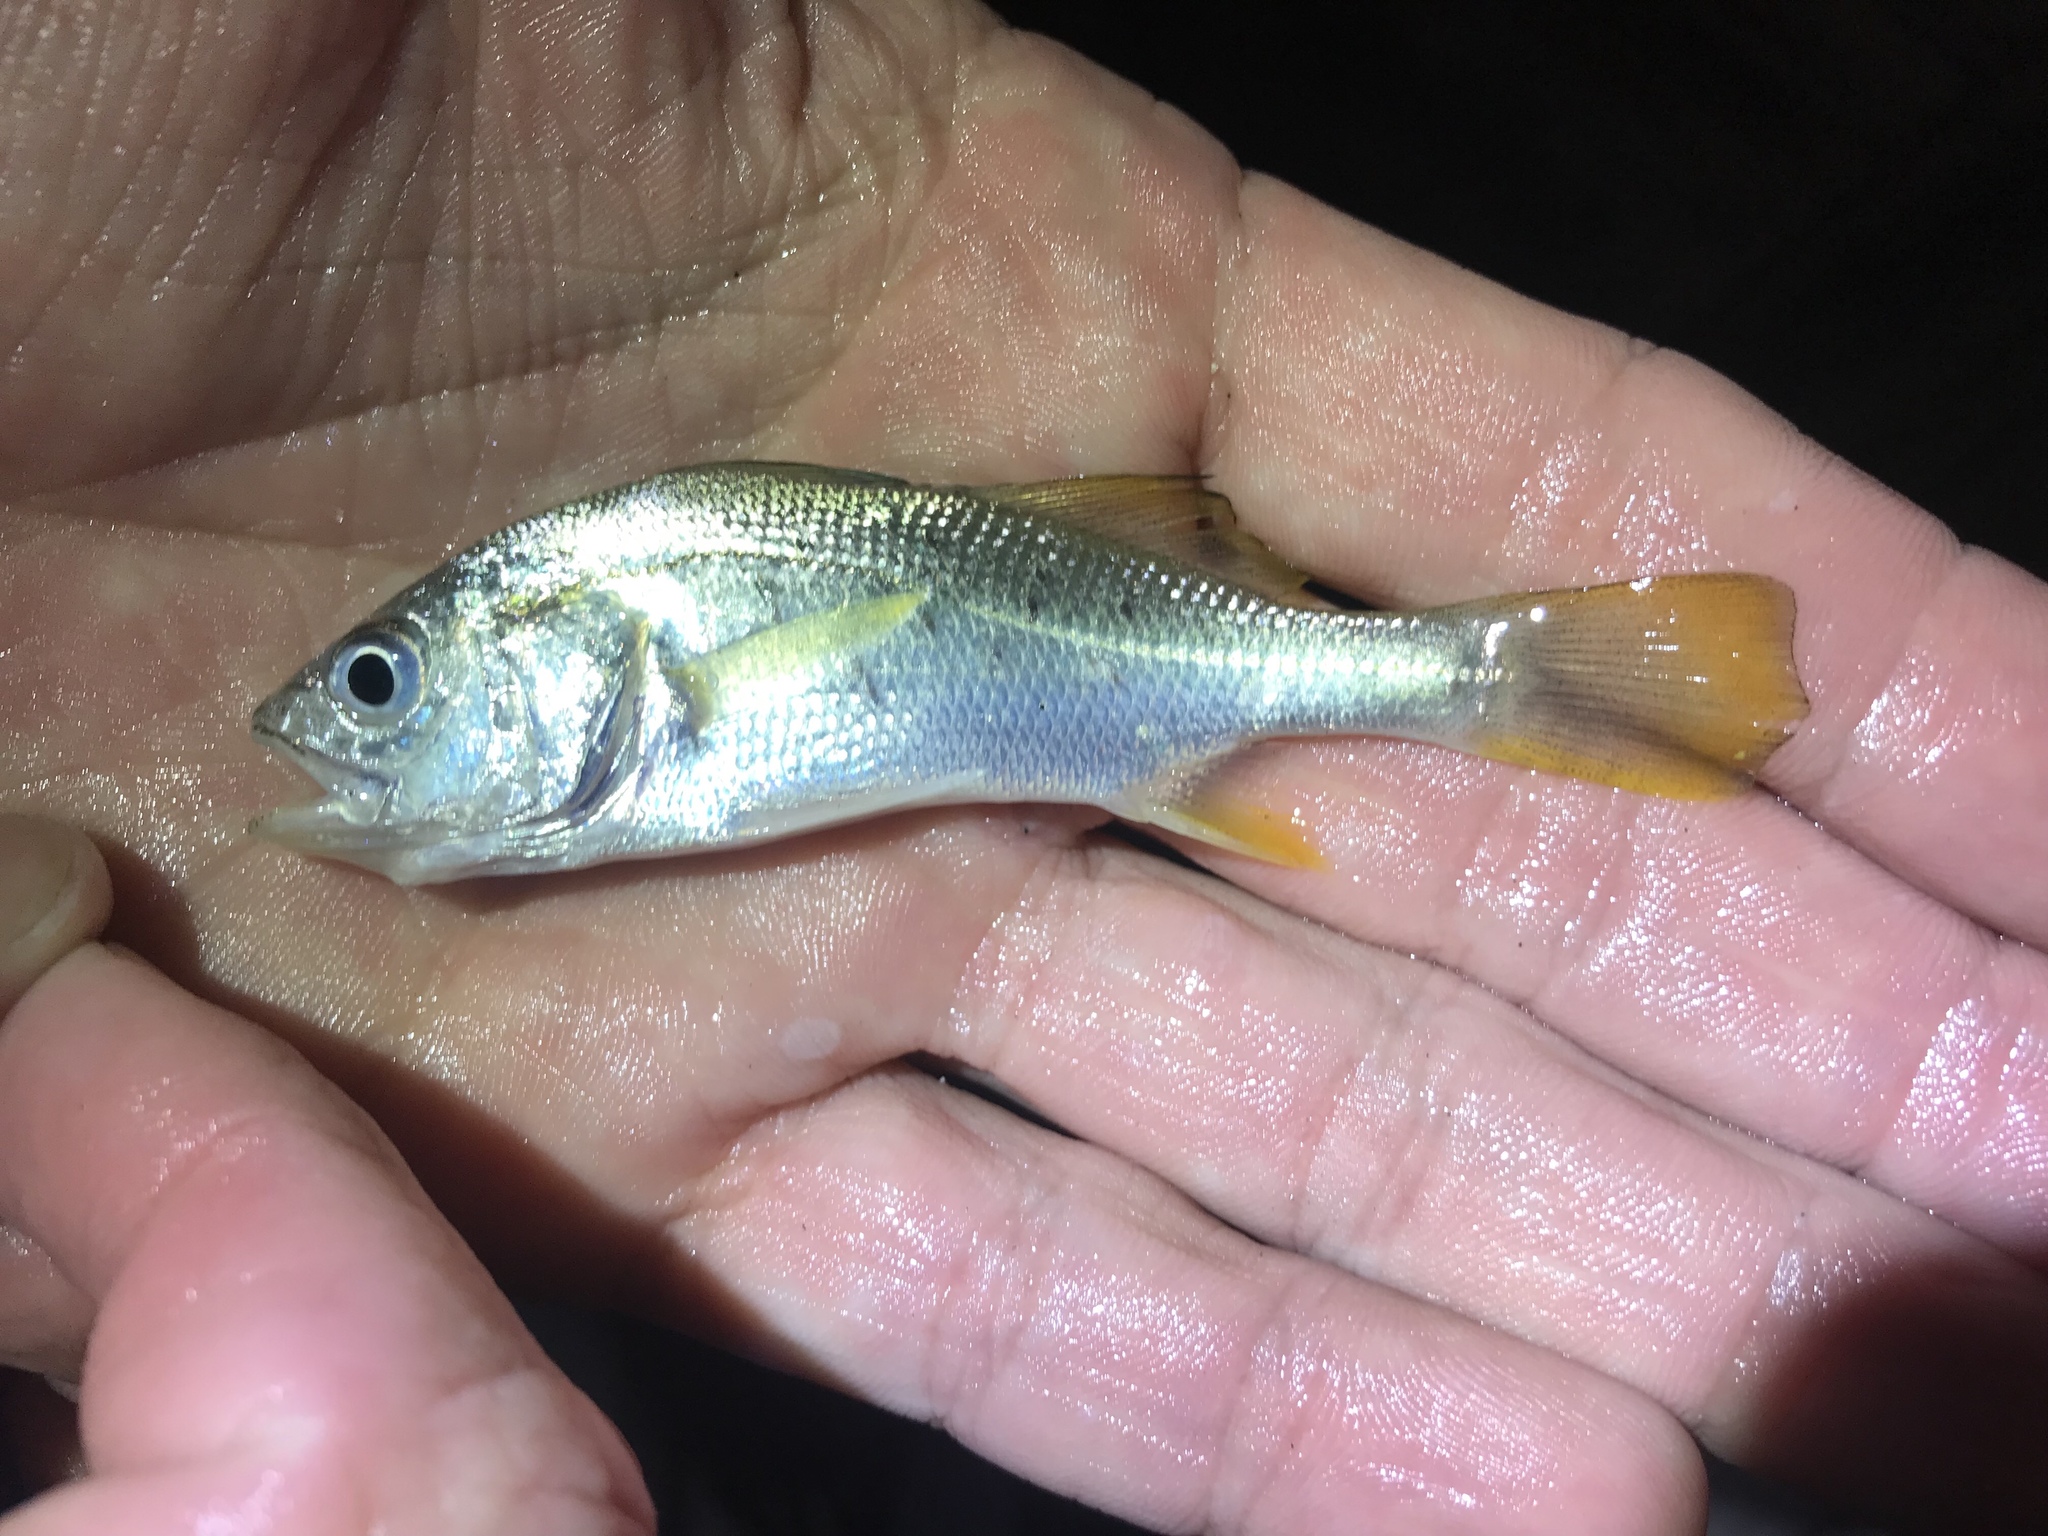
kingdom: Animalia
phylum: Chordata
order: Perciformes
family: Sciaenidae
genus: Bairdiella
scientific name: Bairdiella chrysoura
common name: Silver perch
